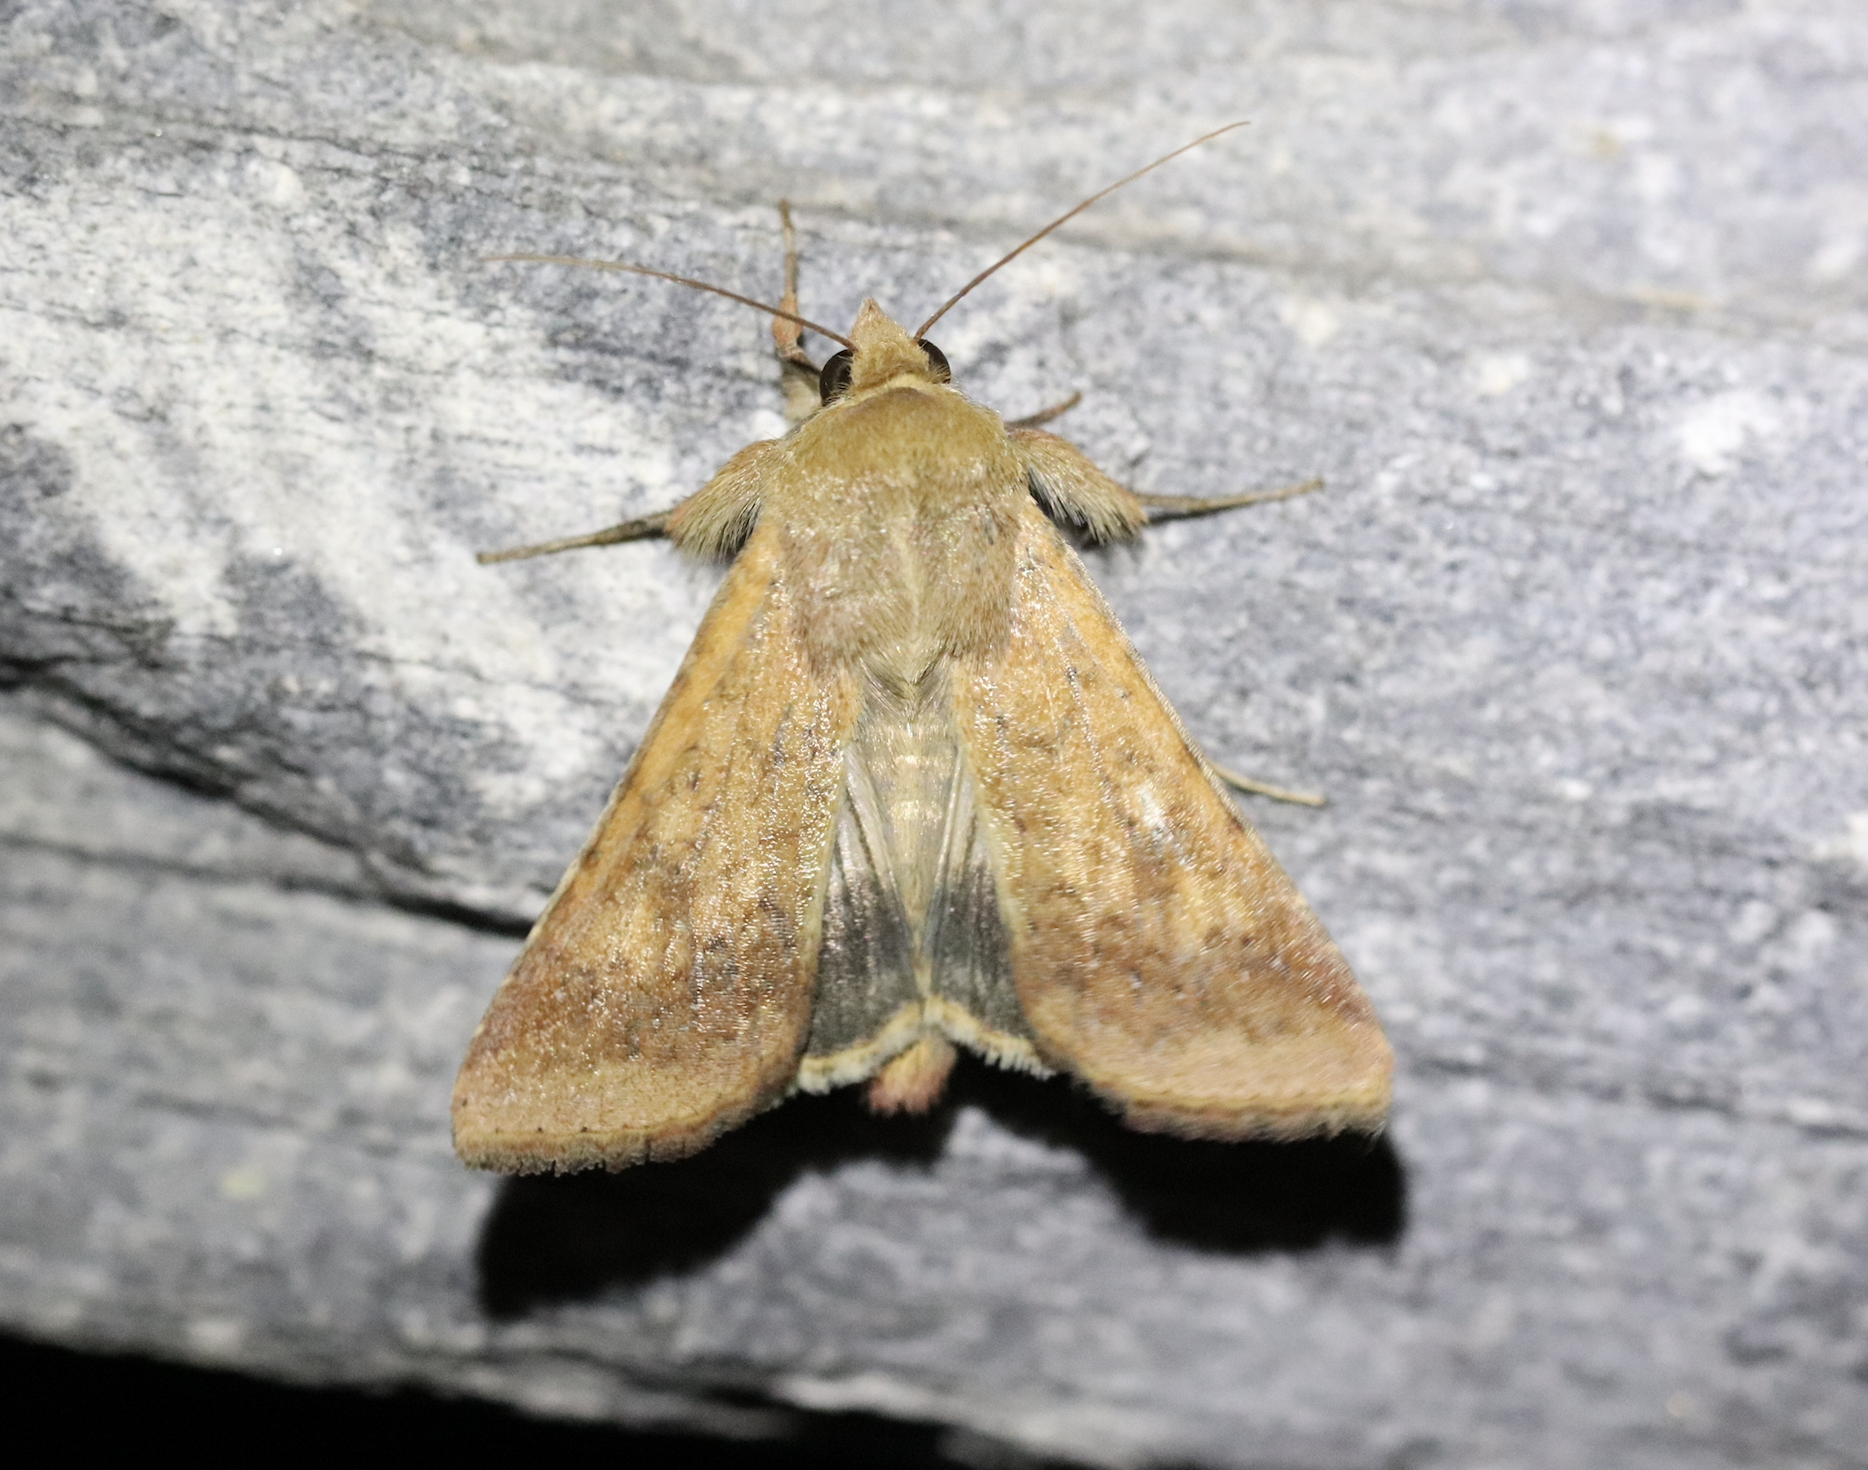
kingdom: Animalia
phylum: Arthropoda
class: Insecta
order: Lepidoptera
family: Noctuidae
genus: Helicoverpa
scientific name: Helicoverpa armigera
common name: Cotton bollworm
